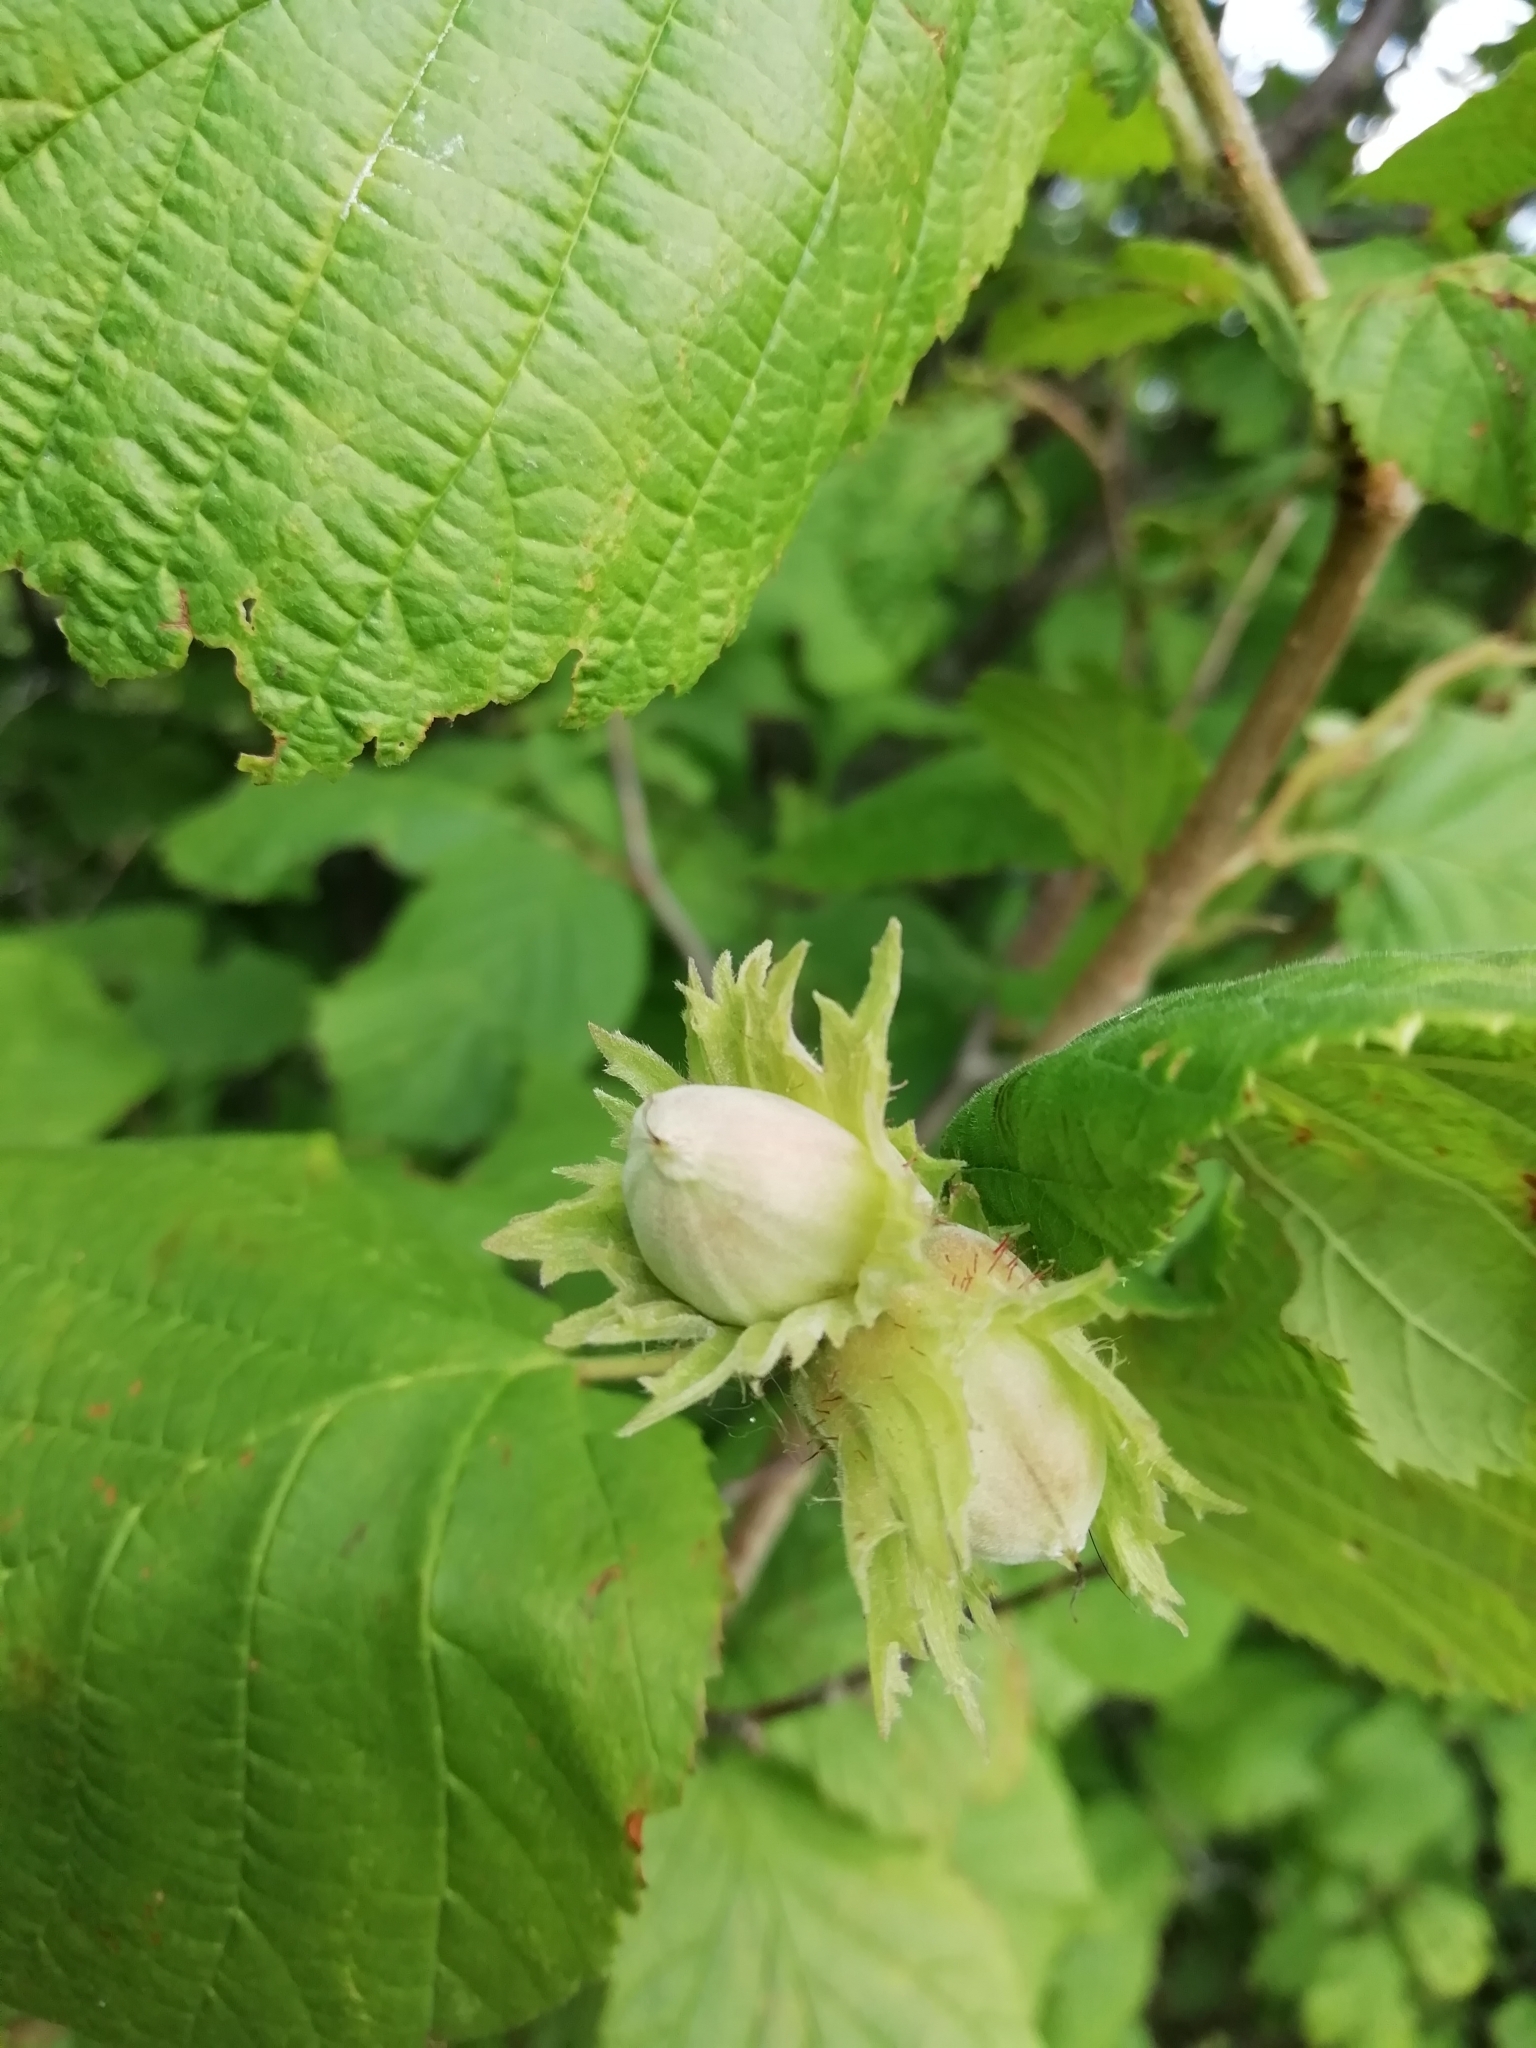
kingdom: Plantae
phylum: Tracheophyta
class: Magnoliopsida
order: Fagales
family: Betulaceae
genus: Corylus
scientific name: Corylus avellana
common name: European hazel
